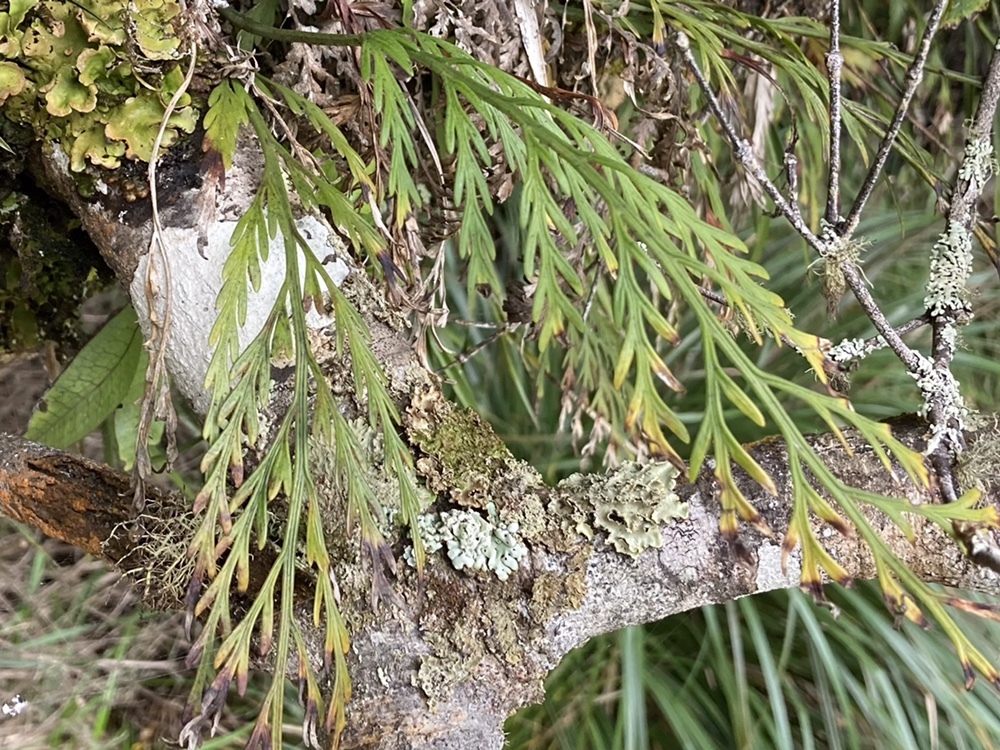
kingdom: Plantae
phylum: Tracheophyta
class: Polypodiopsida
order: Polypodiales
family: Aspleniaceae
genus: Asplenium
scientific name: Asplenium flaccidum
